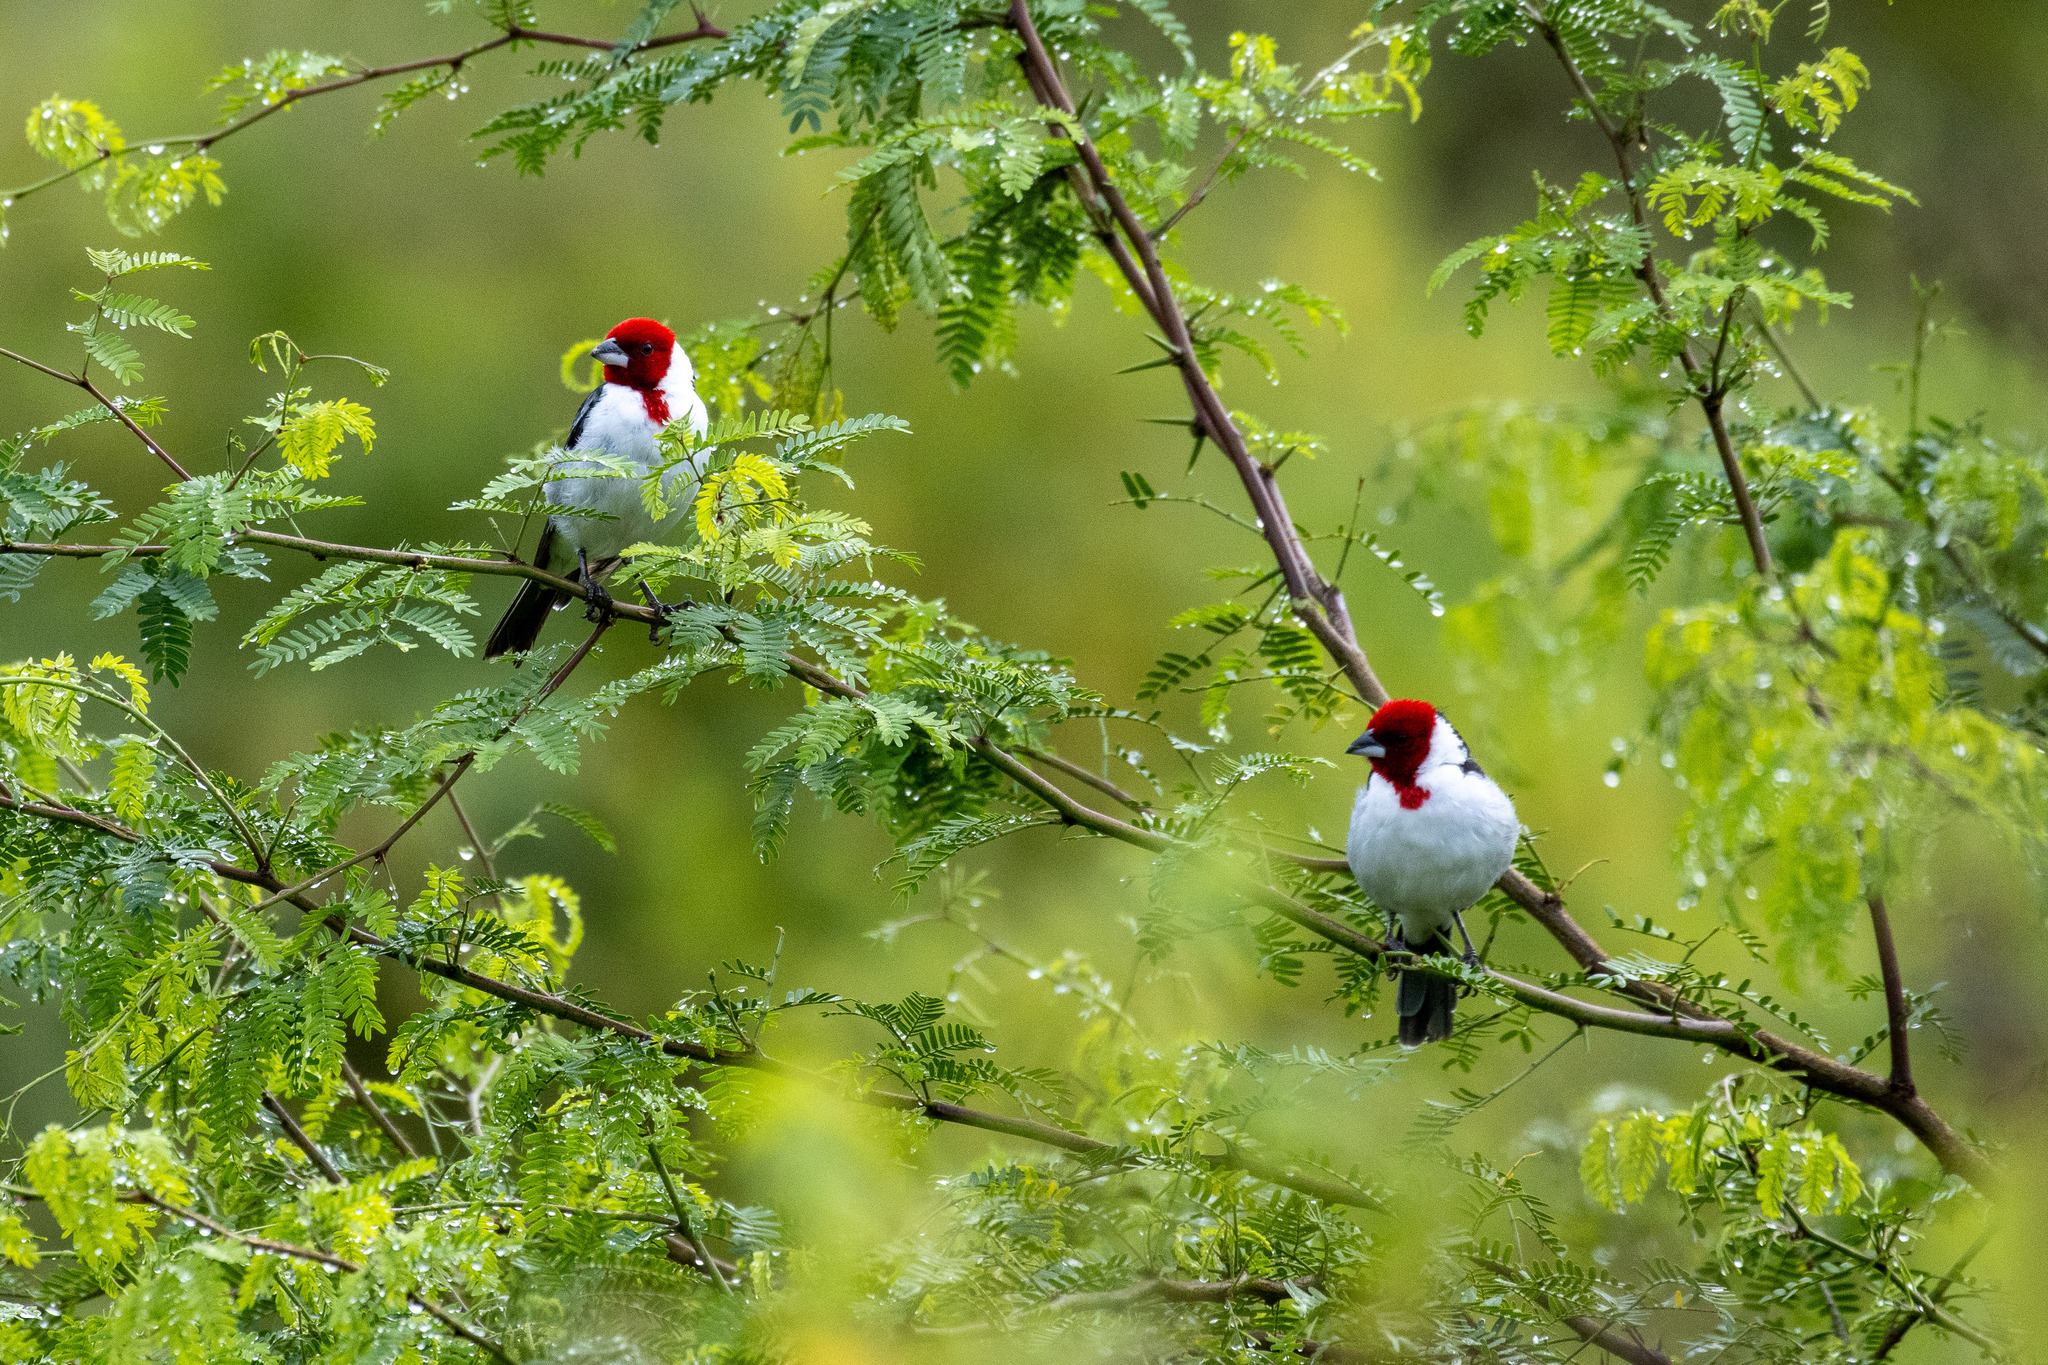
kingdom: Animalia
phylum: Chordata
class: Aves
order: Passeriformes
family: Thraupidae
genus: Paroaria
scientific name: Paroaria dominicana
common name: Red-cowled cardinal
